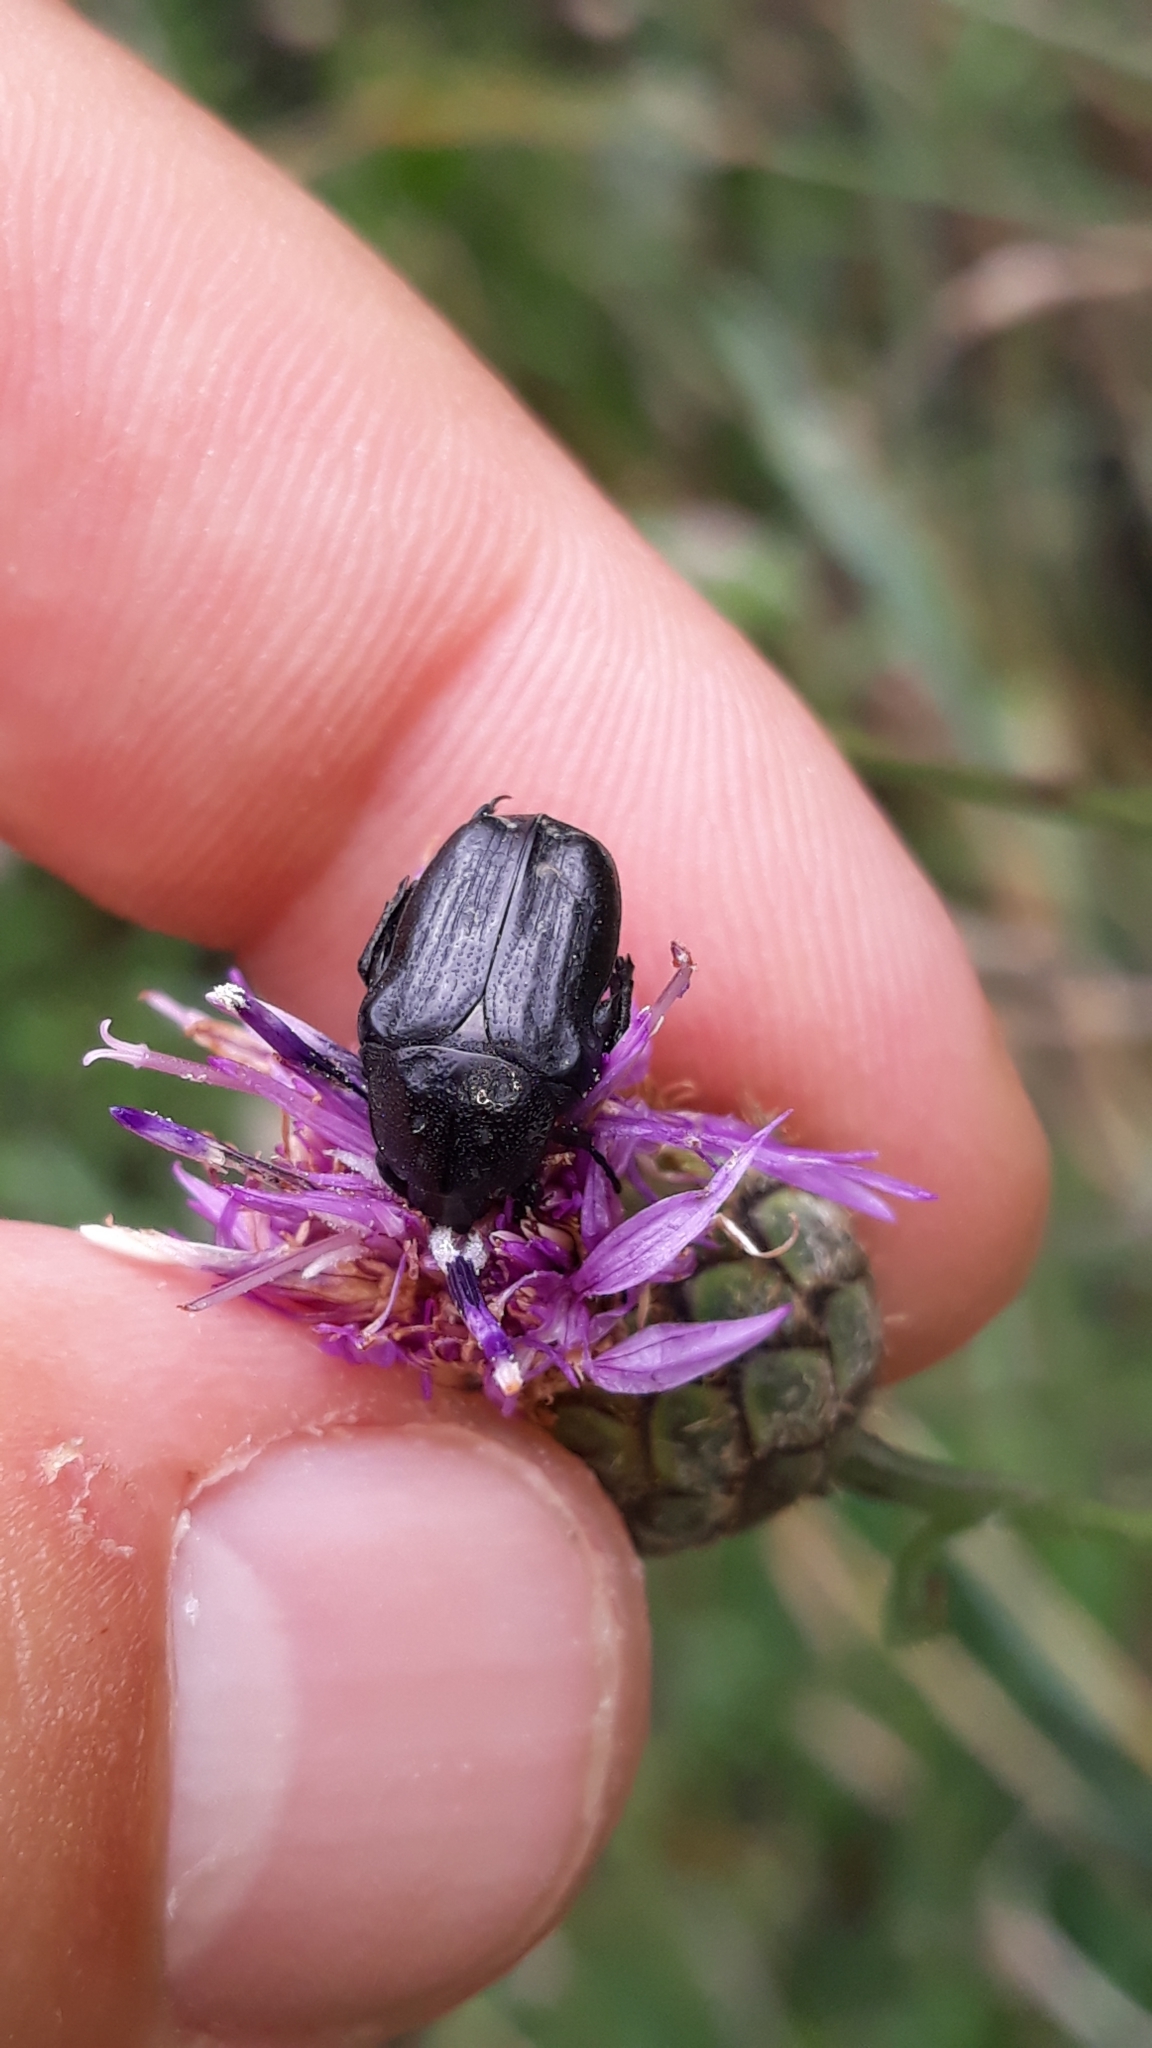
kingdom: Animalia
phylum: Arthropoda
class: Insecta
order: Coleoptera
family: Scarabaeidae
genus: Oxythyrea
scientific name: Oxythyrea funesta
